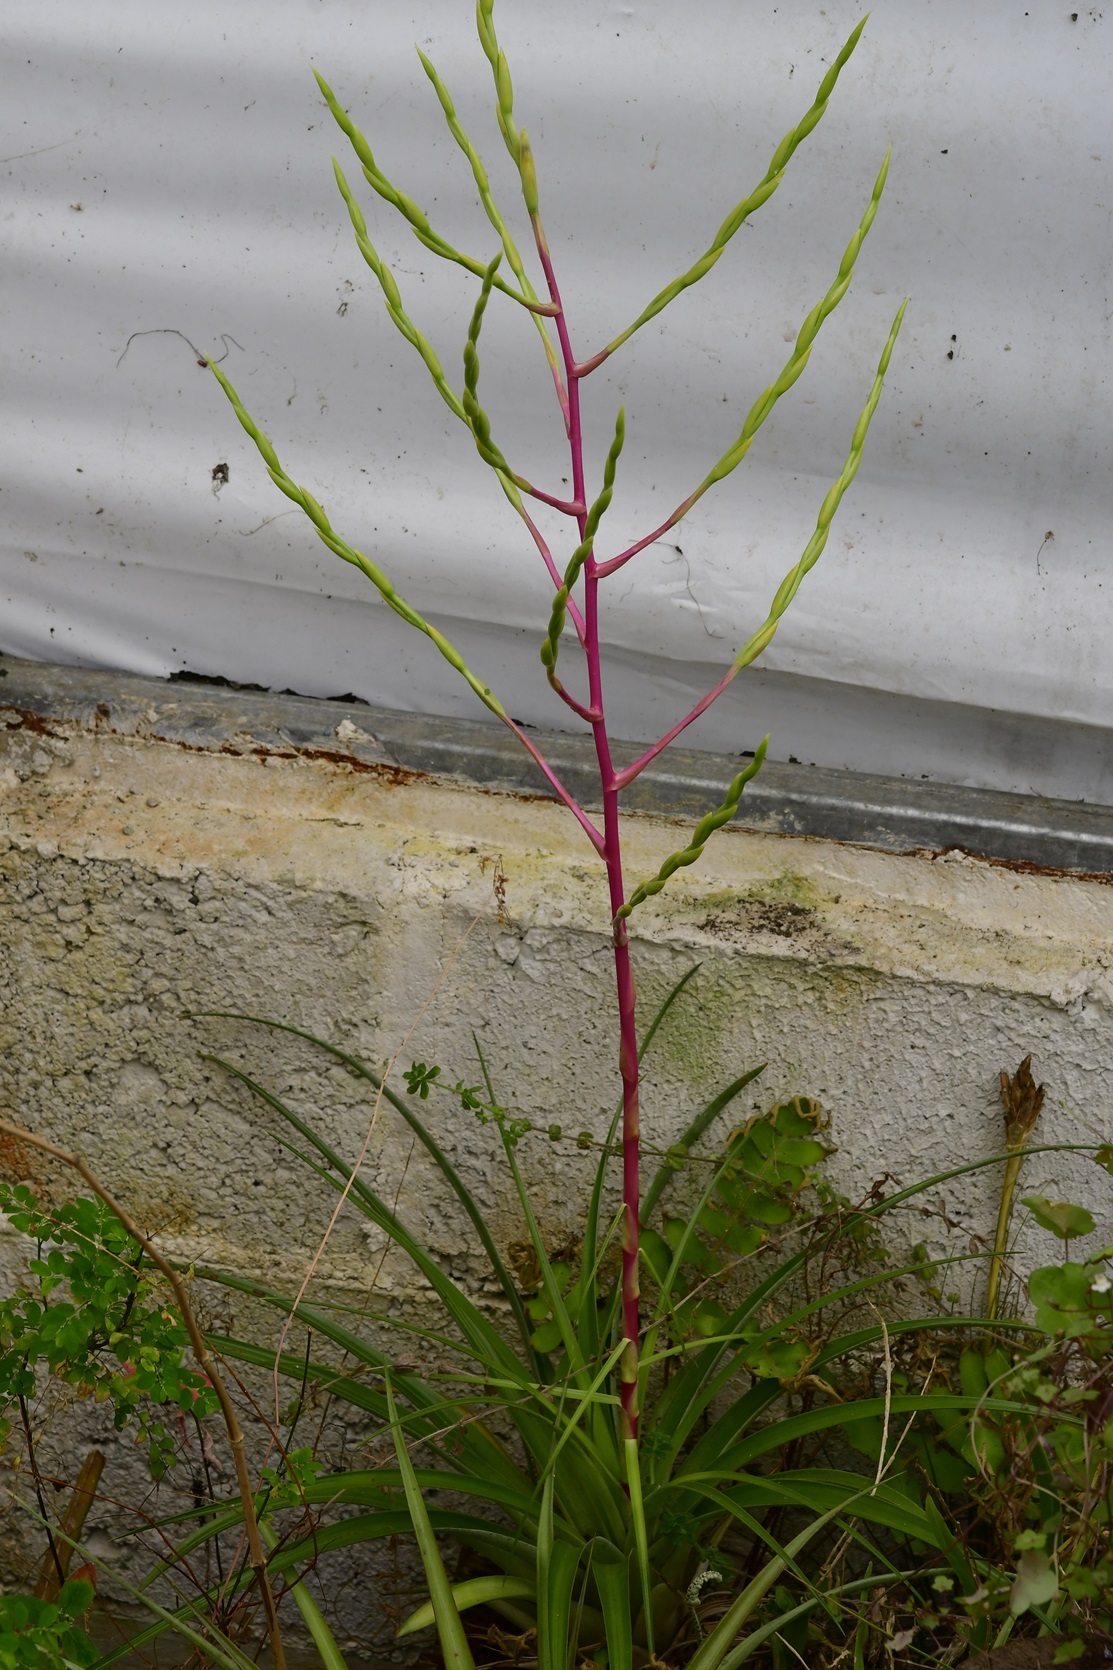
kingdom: Plantae
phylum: Tracheophyta
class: Liliopsida
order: Poales
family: Bromeliaceae
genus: Tillandsia
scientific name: Tillandsia cucaensis
